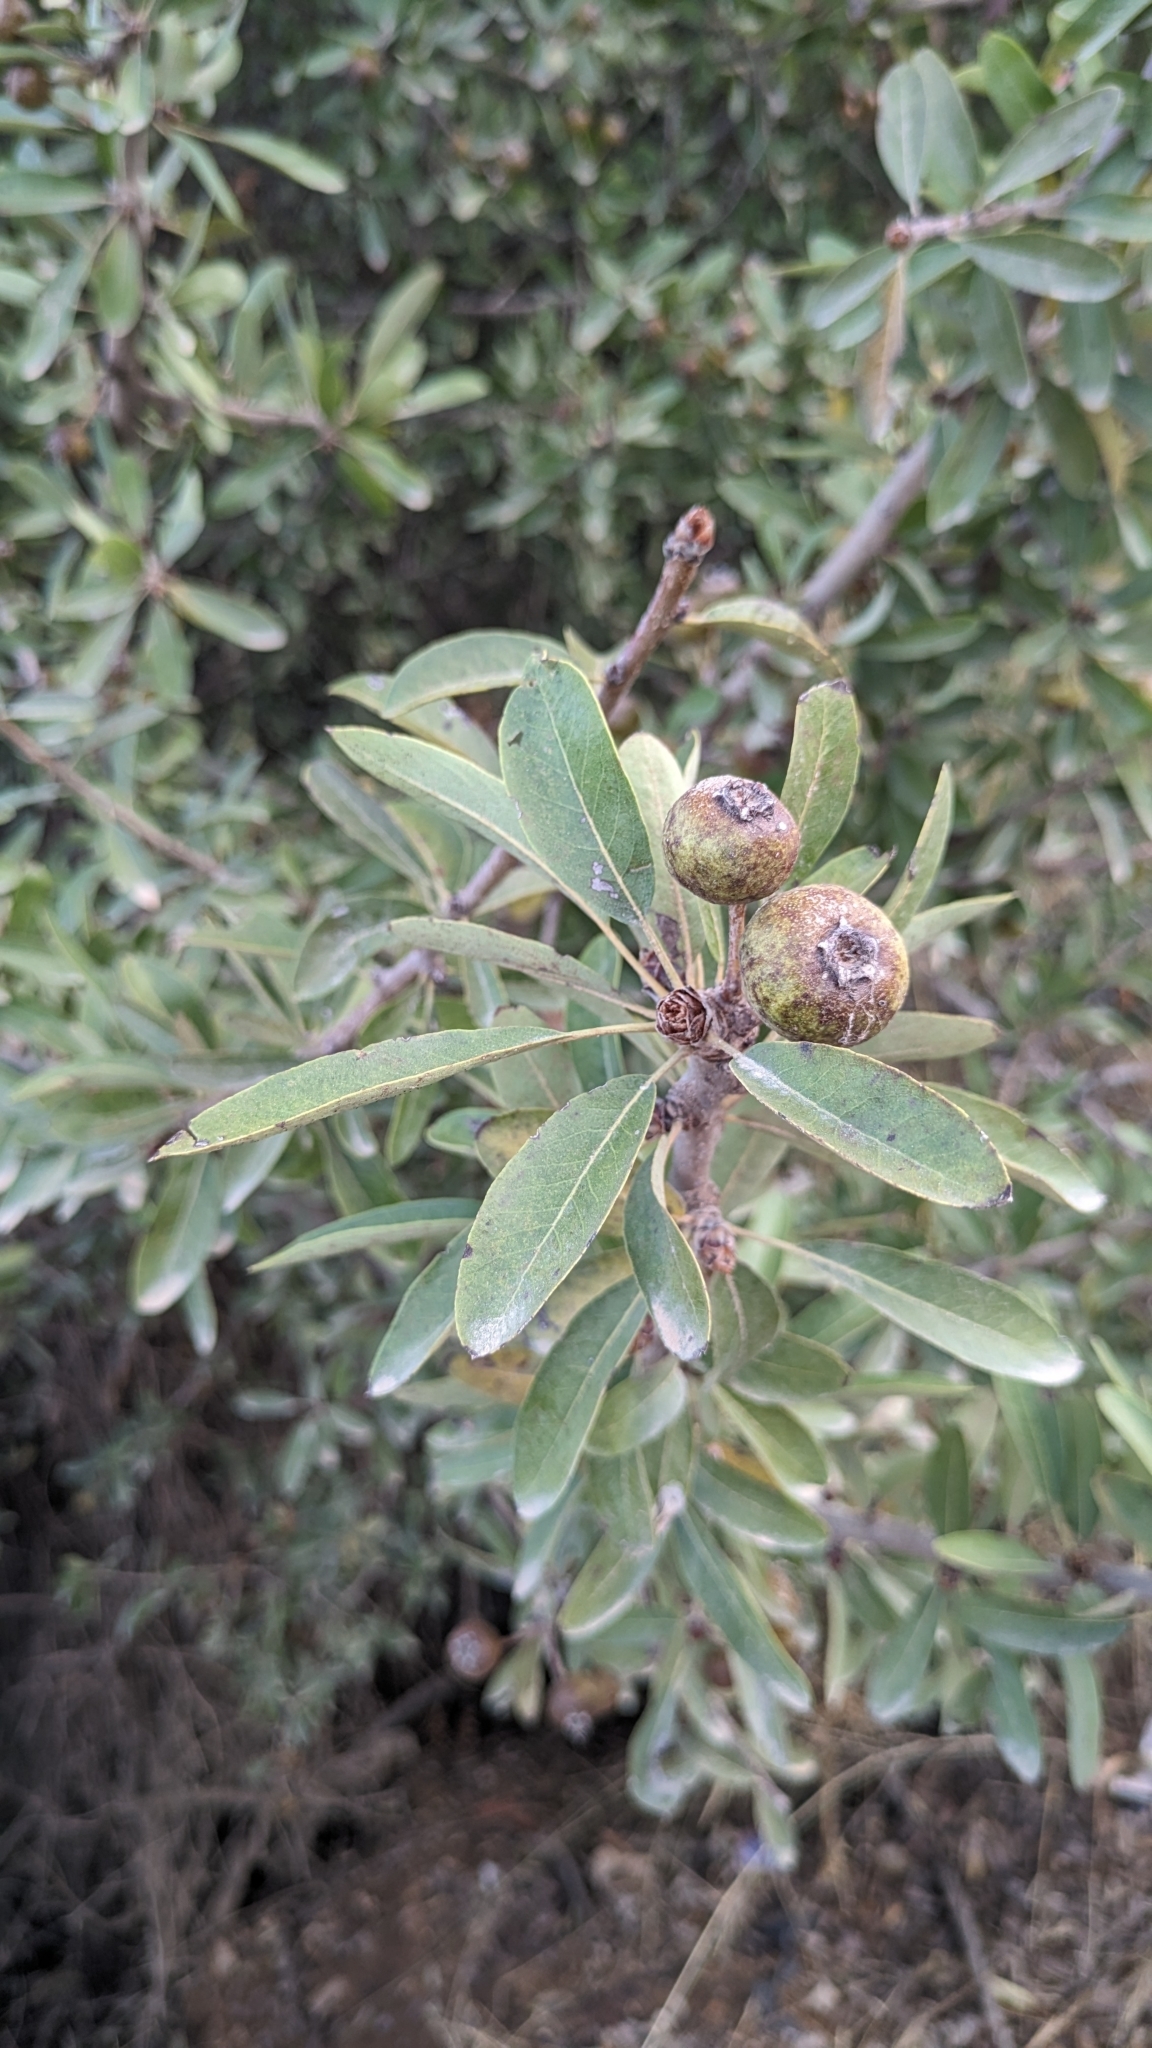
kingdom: Plantae
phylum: Tracheophyta
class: Magnoliopsida
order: Rosales
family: Rosaceae
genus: Pyrus
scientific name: Pyrus spinosa
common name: Almond-leaf pear
